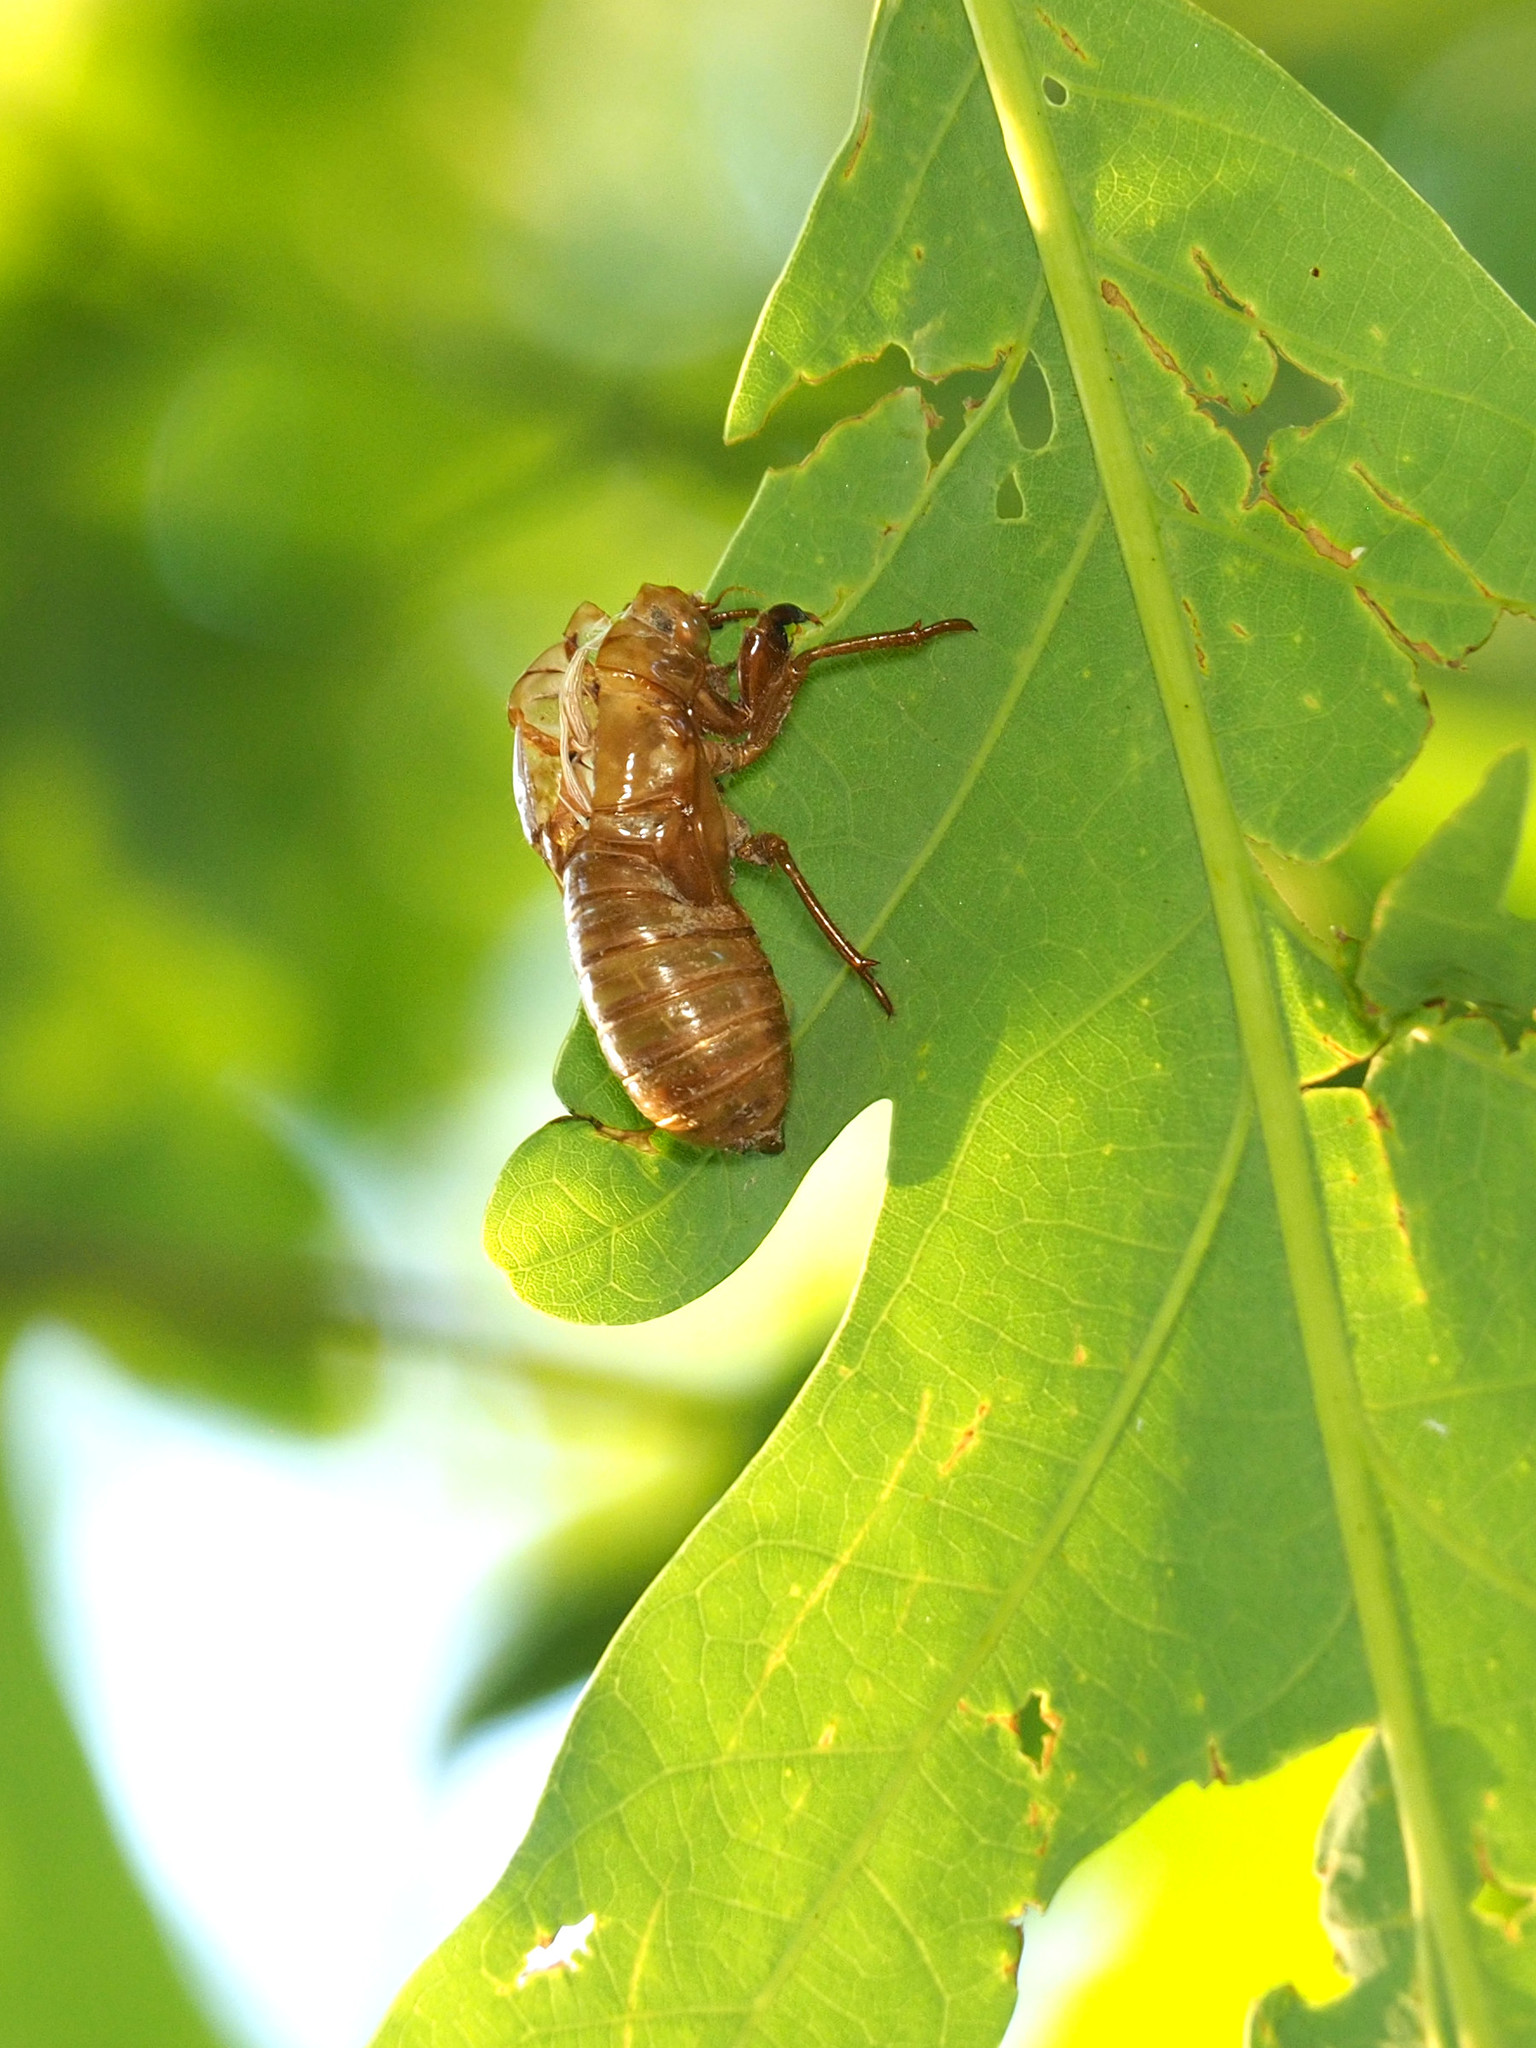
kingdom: Animalia
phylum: Arthropoda
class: Insecta
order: Hemiptera
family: Cicadidae
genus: Magicicada
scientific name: Magicicada
